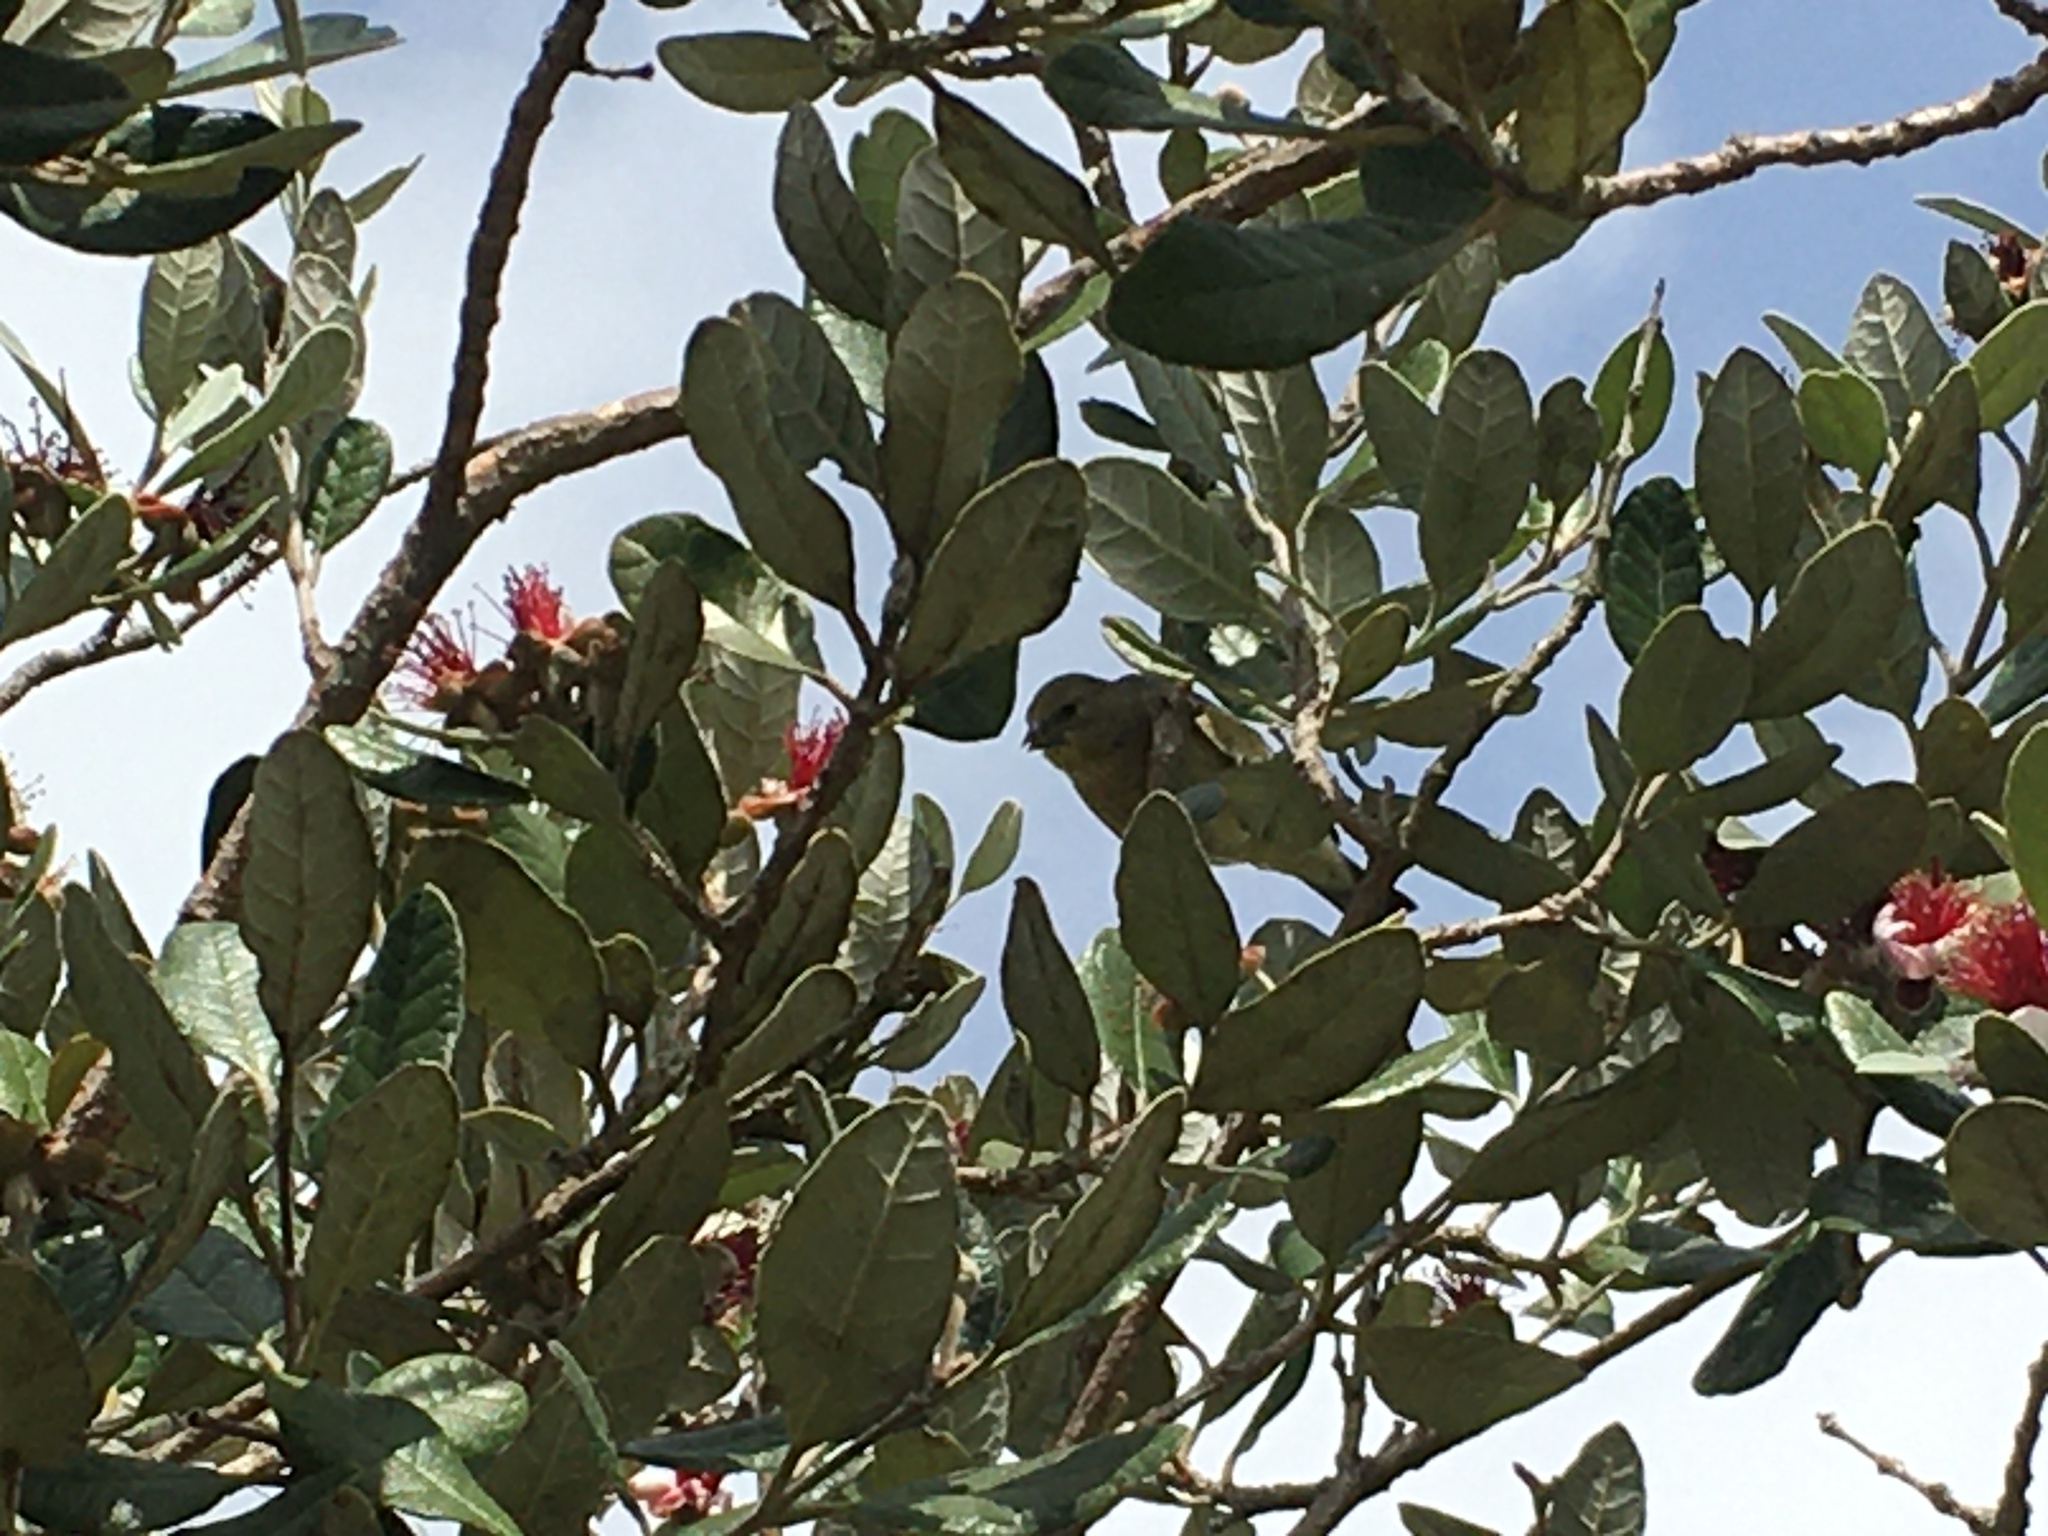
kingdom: Animalia
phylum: Chordata
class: Aves
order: Passeriformes
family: Fringillidae
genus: Spinus
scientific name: Spinus psaltria
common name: Lesser goldfinch
